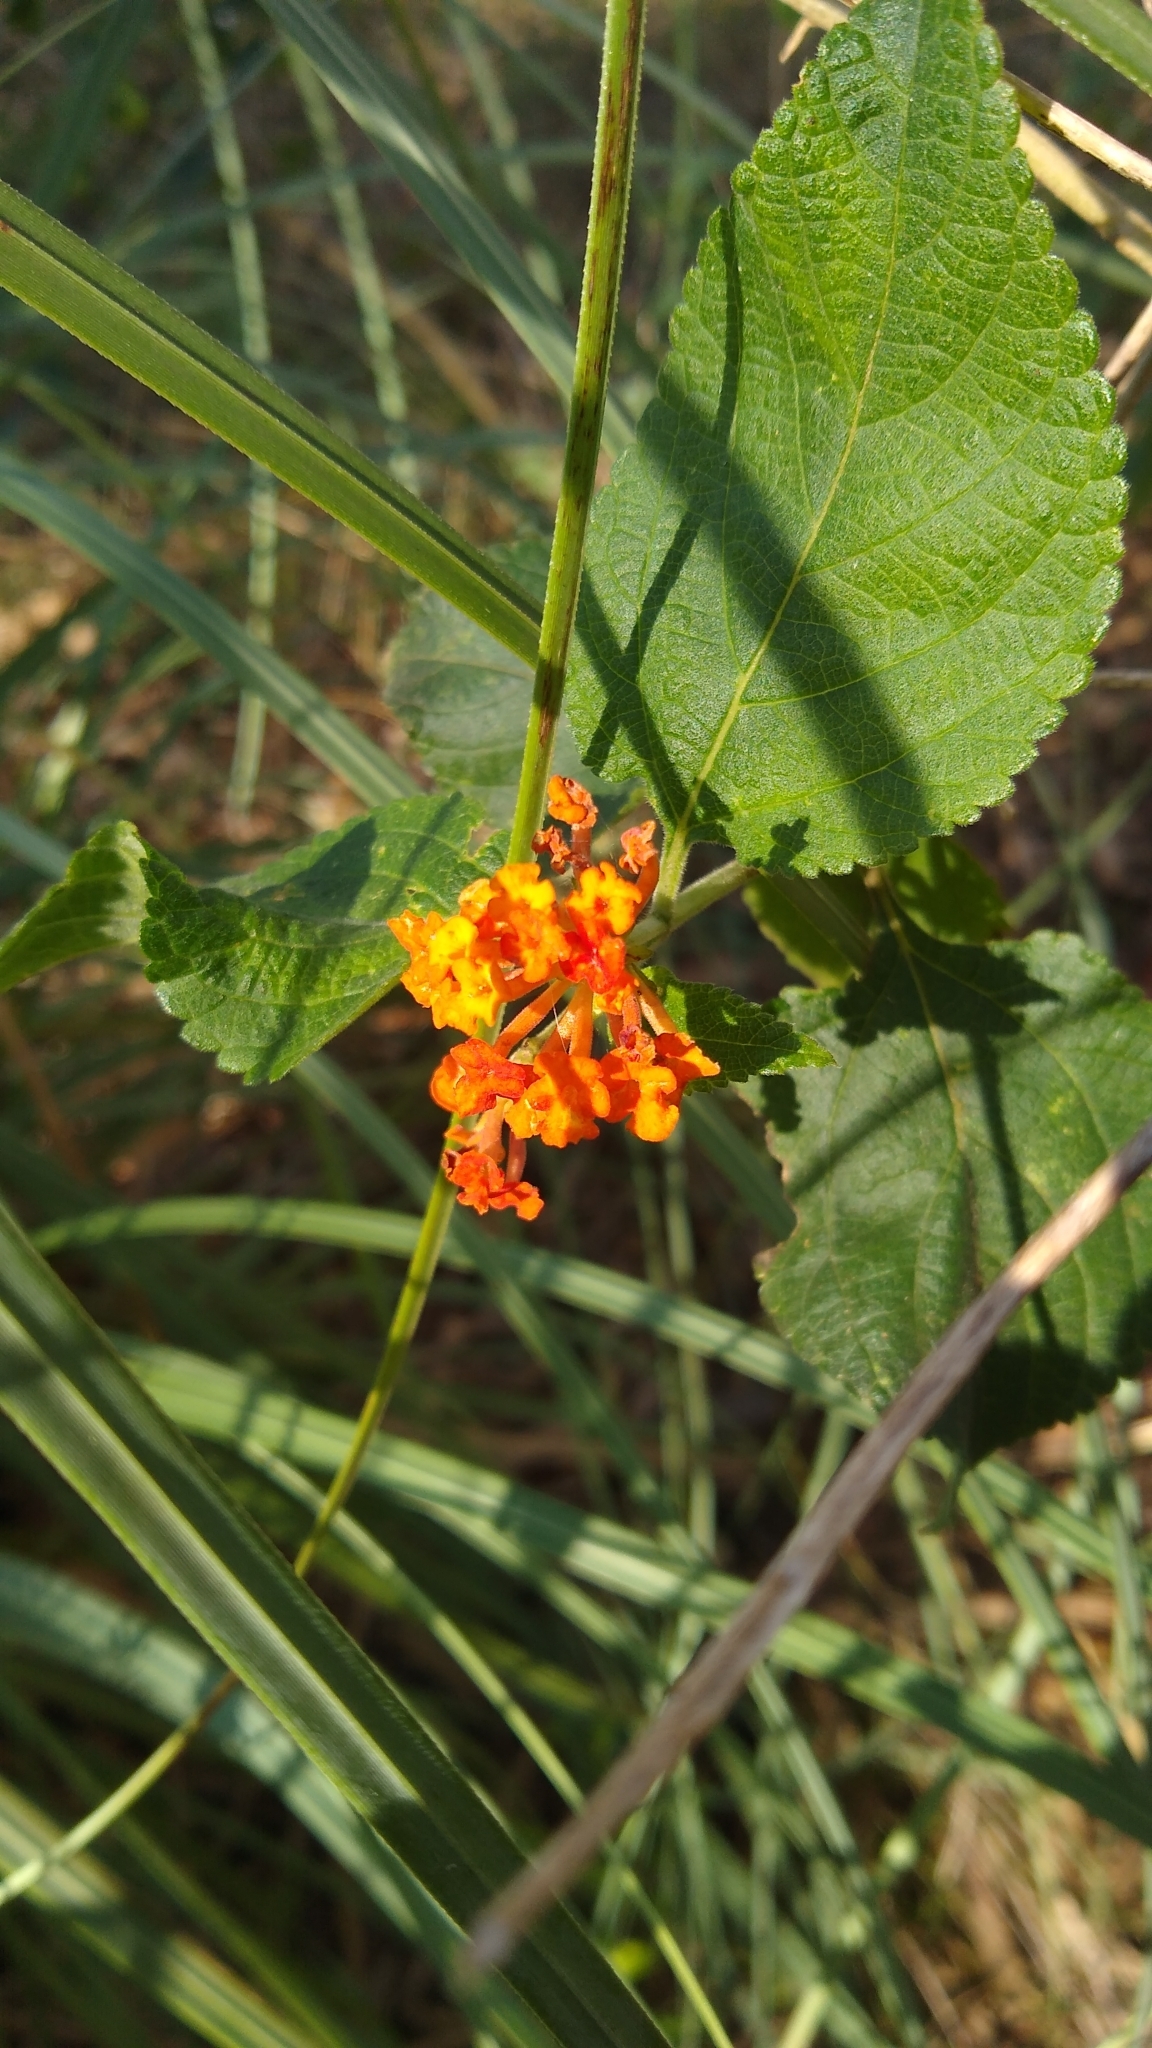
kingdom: Plantae
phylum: Tracheophyta
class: Magnoliopsida
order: Lamiales
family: Verbenaceae
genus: Lantana
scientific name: Lantana camara
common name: Lantana
